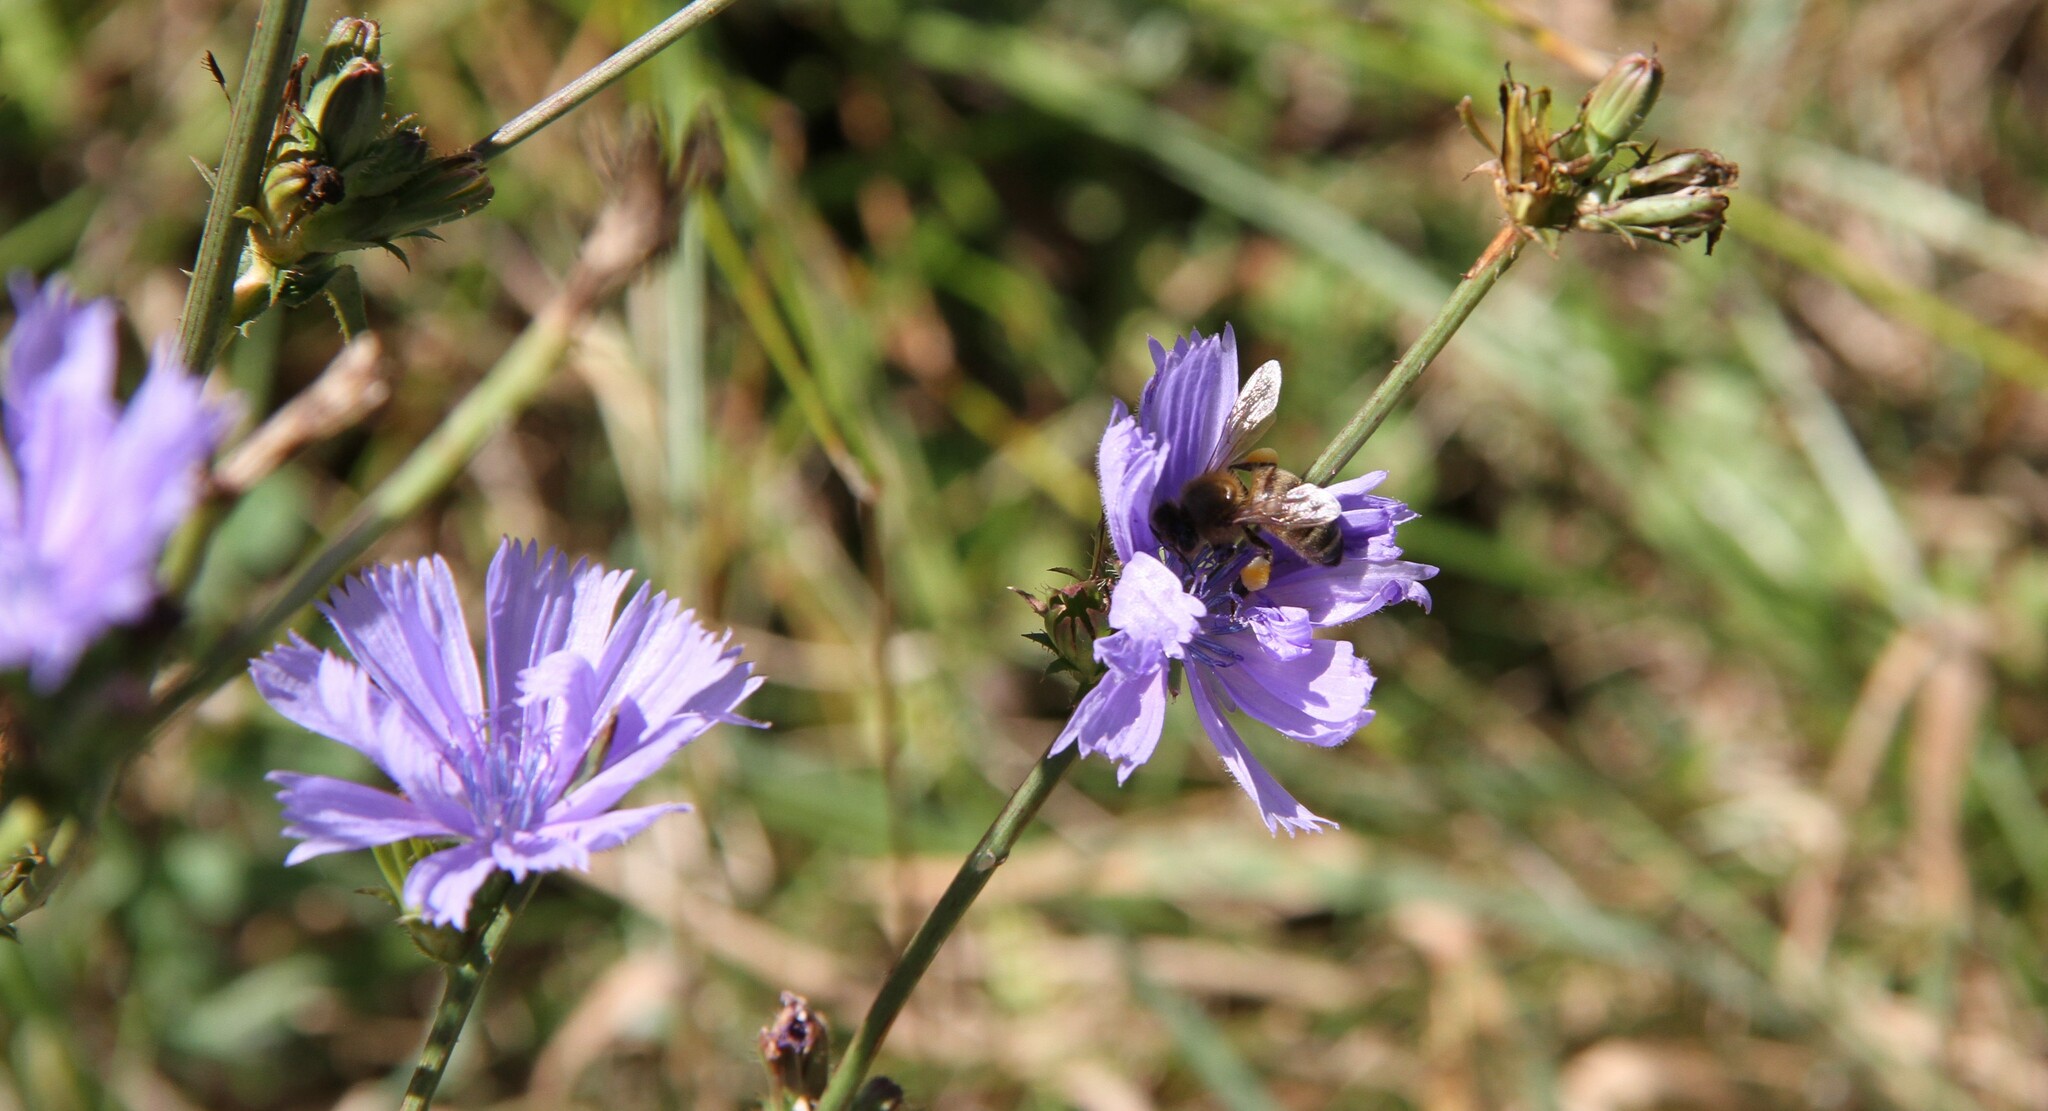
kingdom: Animalia
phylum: Arthropoda
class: Insecta
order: Hymenoptera
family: Apidae
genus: Apis
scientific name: Apis mellifera
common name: Honey bee
